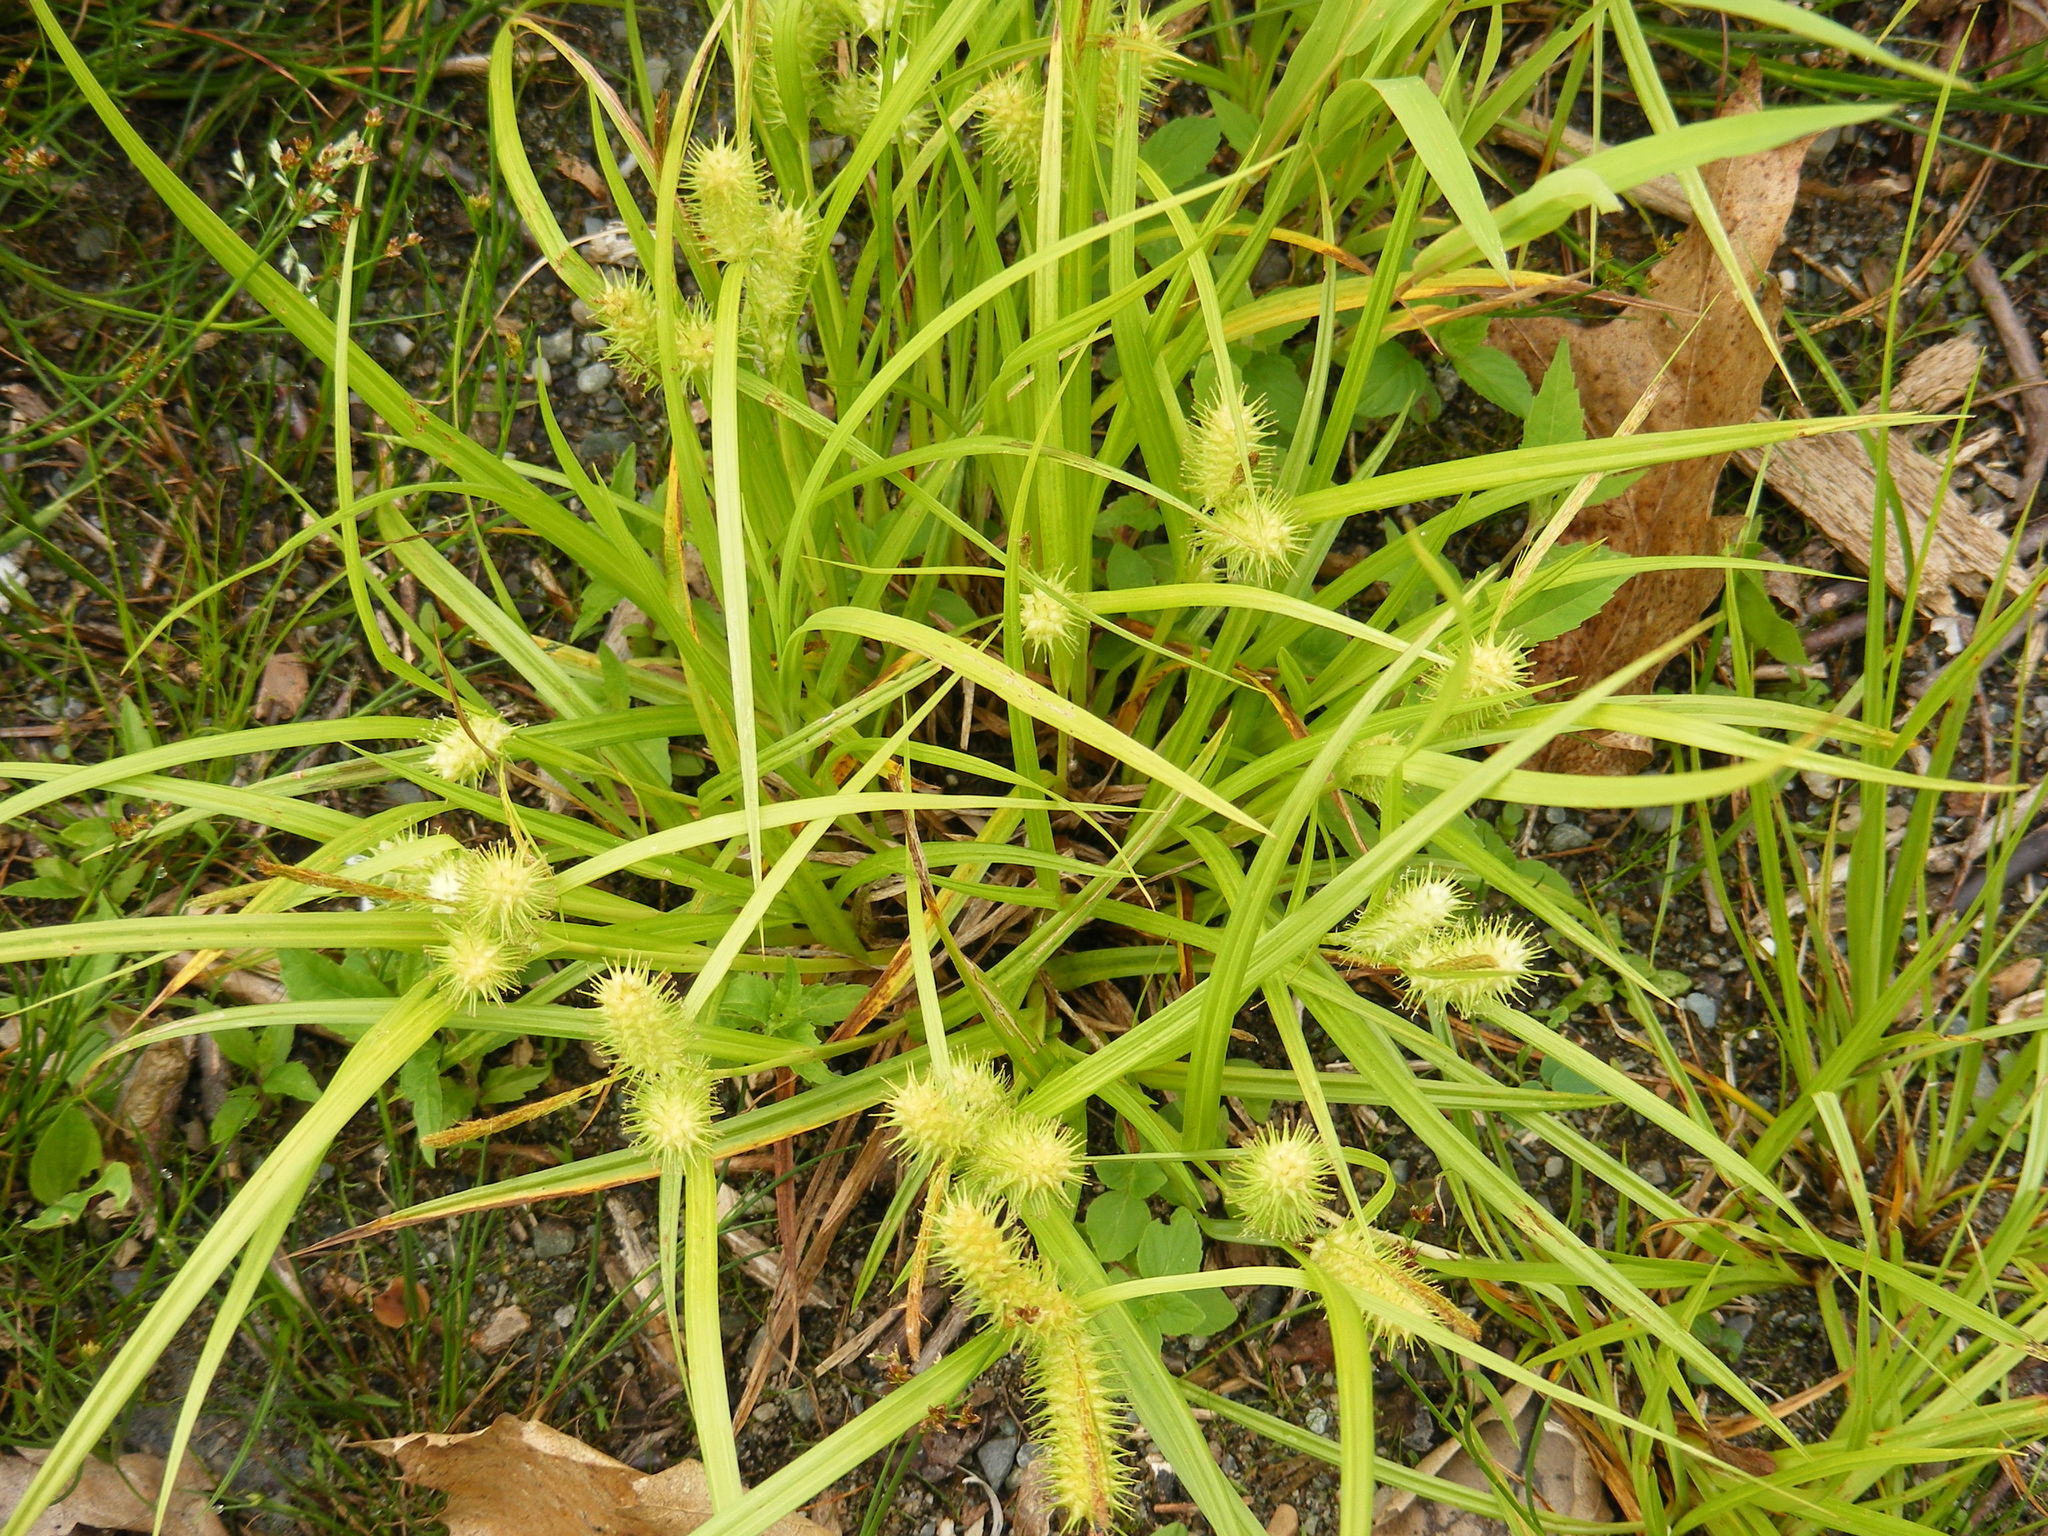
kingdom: Plantae
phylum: Tracheophyta
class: Liliopsida
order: Poales
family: Cyperaceae
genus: Carex
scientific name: Carex lurida
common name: Sallow sedge
